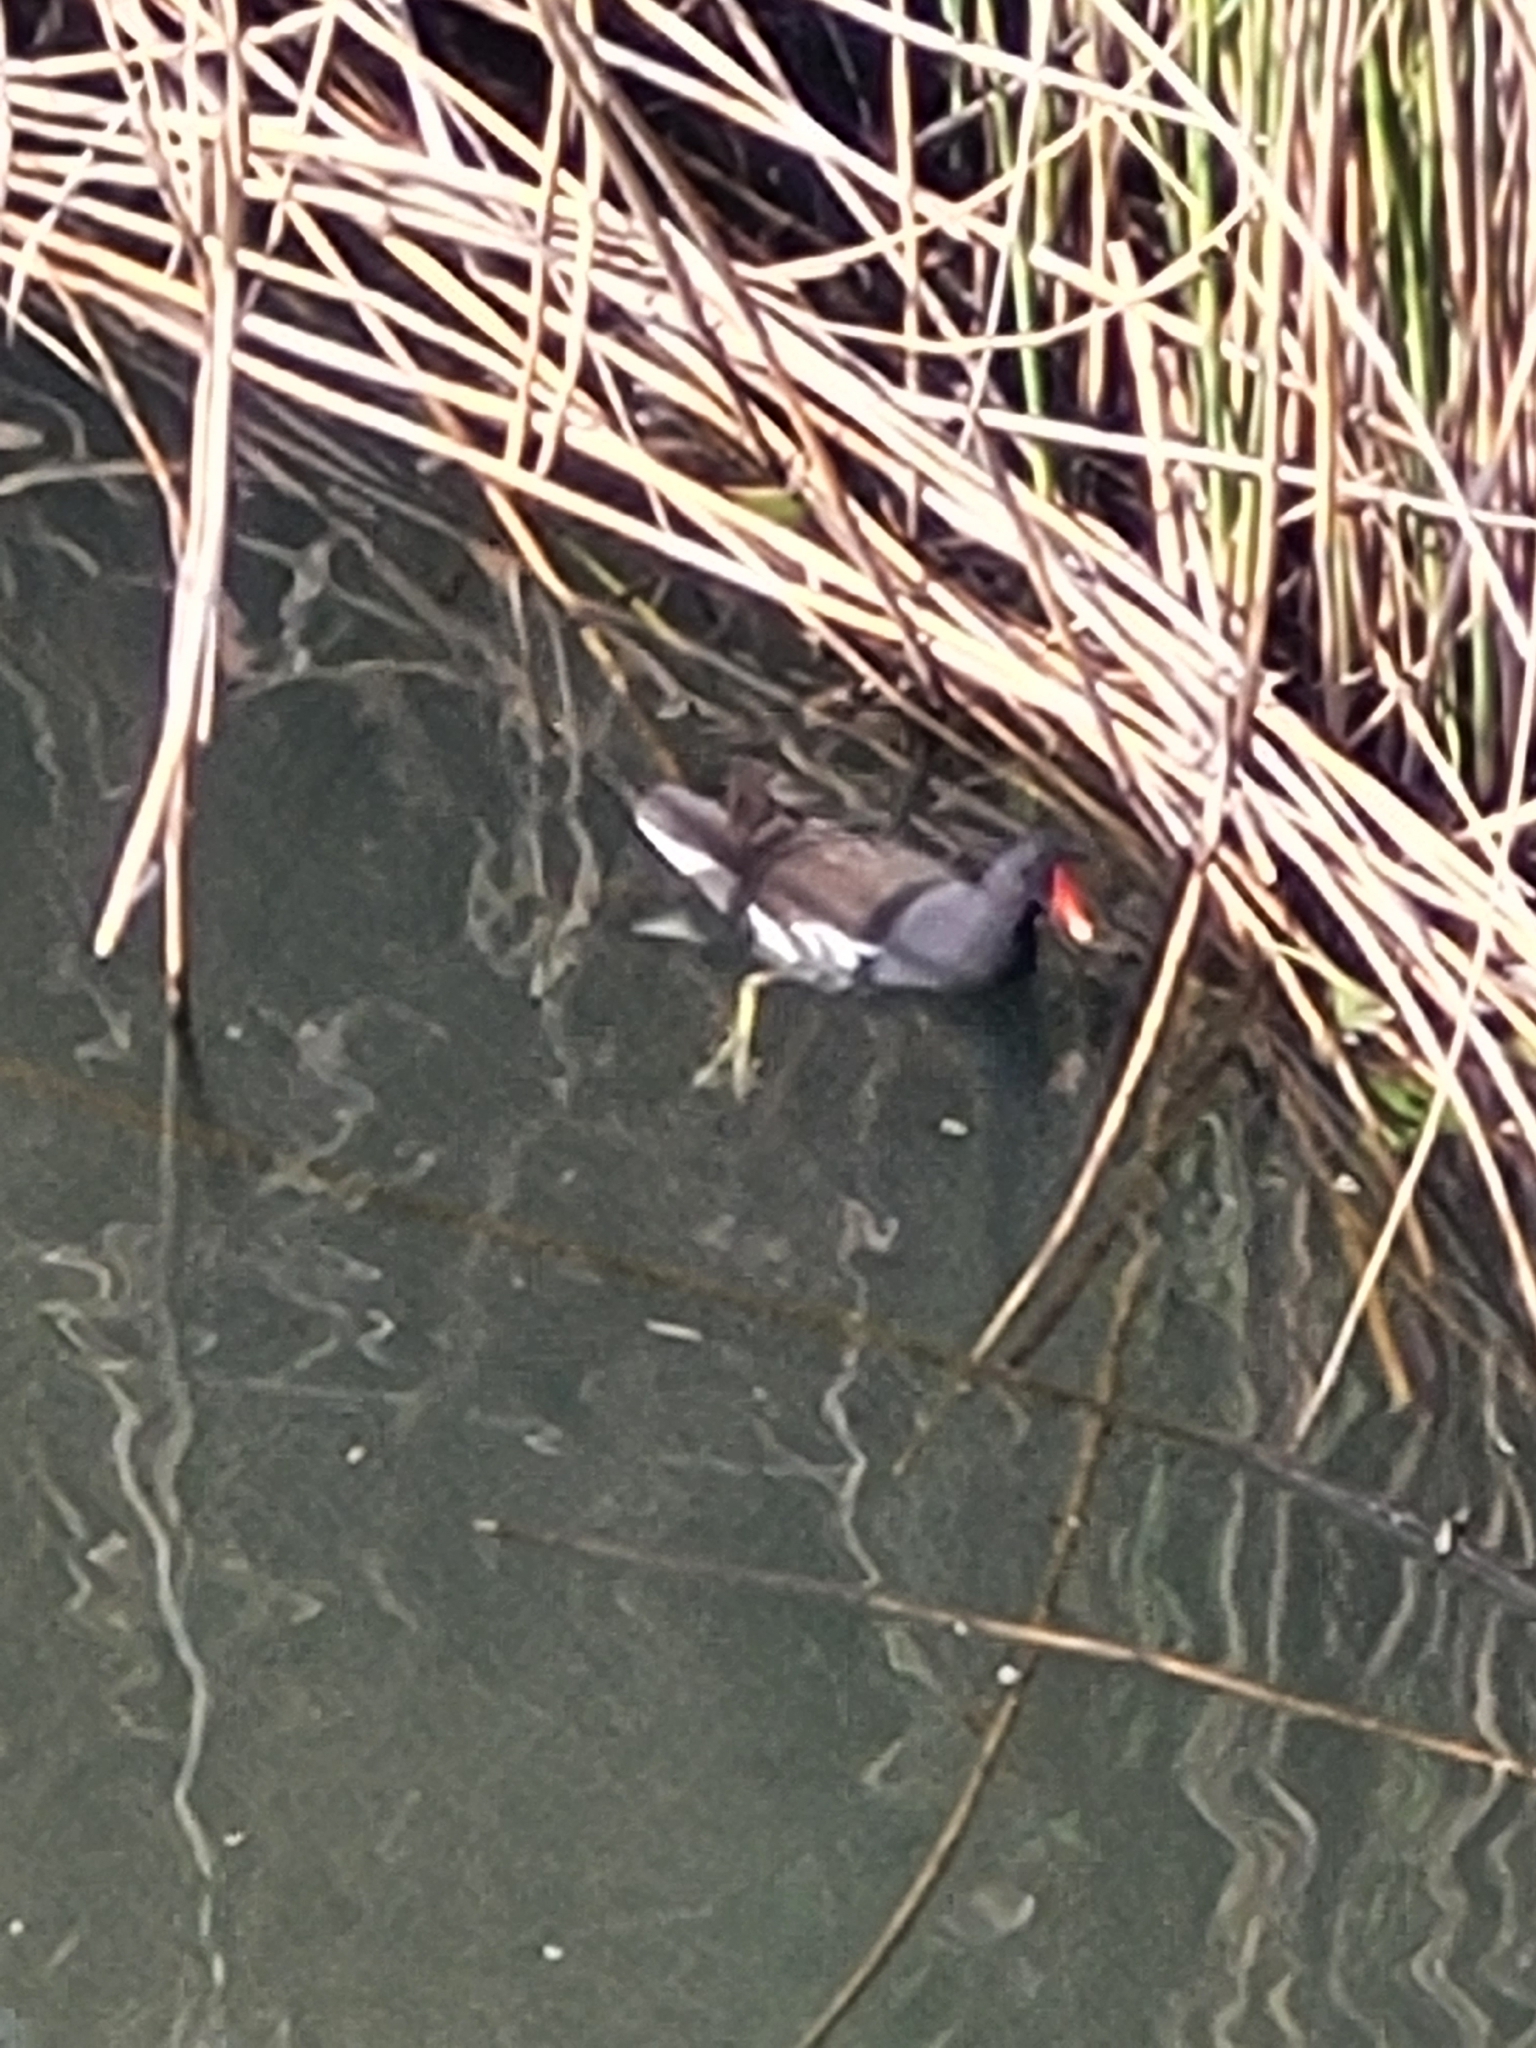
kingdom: Animalia
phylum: Chordata
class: Aves
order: Gruiformes
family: Rallidae
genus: Gallinula
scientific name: Gallinula chloropus
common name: Common moorhen
